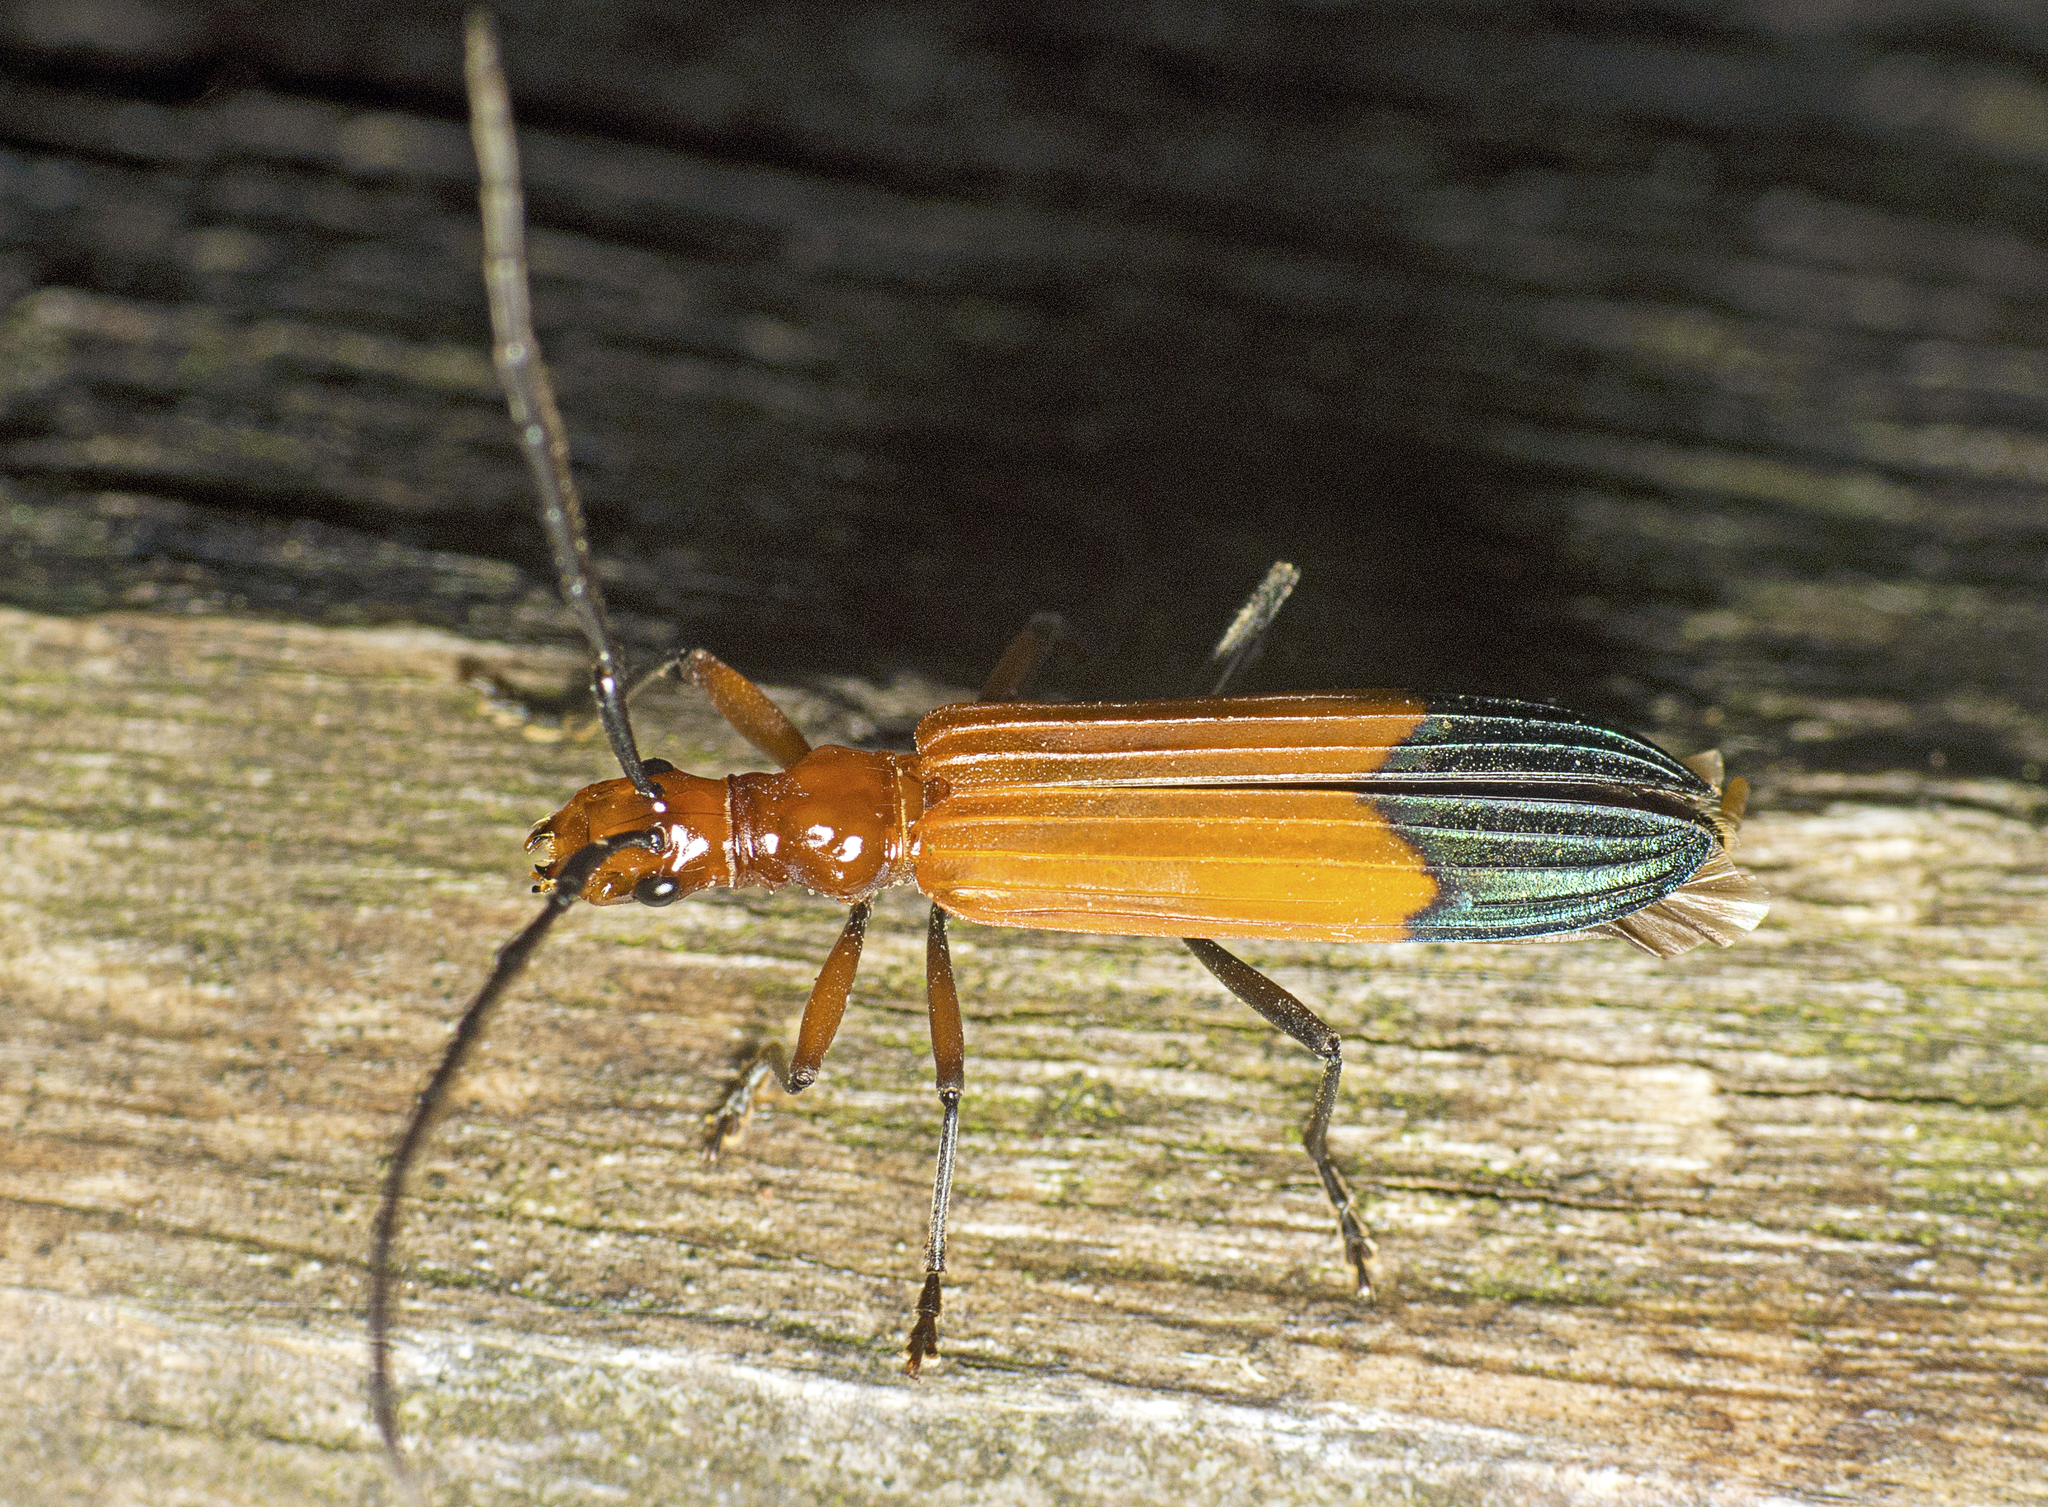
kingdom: Animalia
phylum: Arthropoda
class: Insecta
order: Coleoptera
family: Cerambycidae
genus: Stenoderus
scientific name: Stenoderus ostricilla
